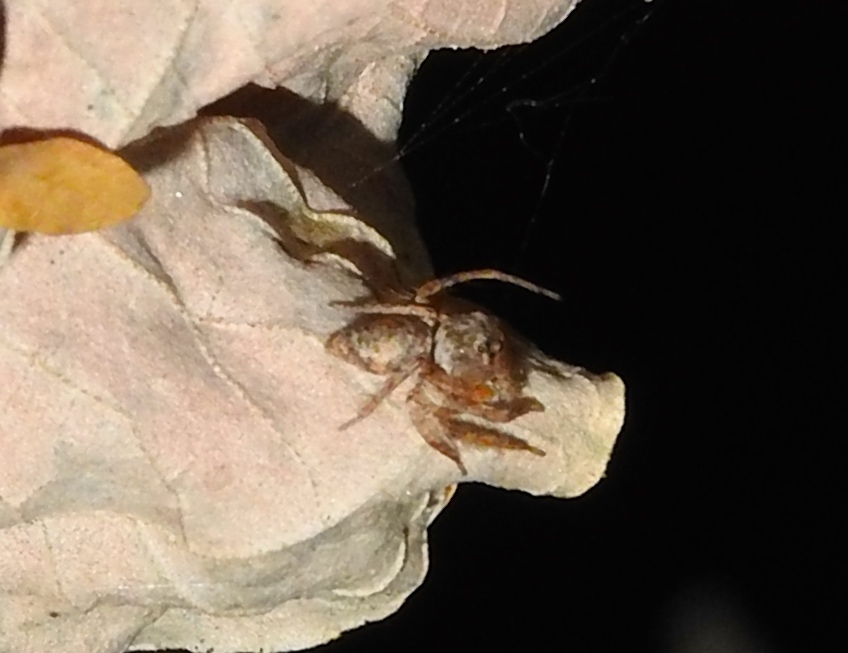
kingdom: Animalia
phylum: Arthropoda
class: Arachnida
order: Araneae
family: Oxyopidae
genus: Hamataliwa
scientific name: Hamataliwa
